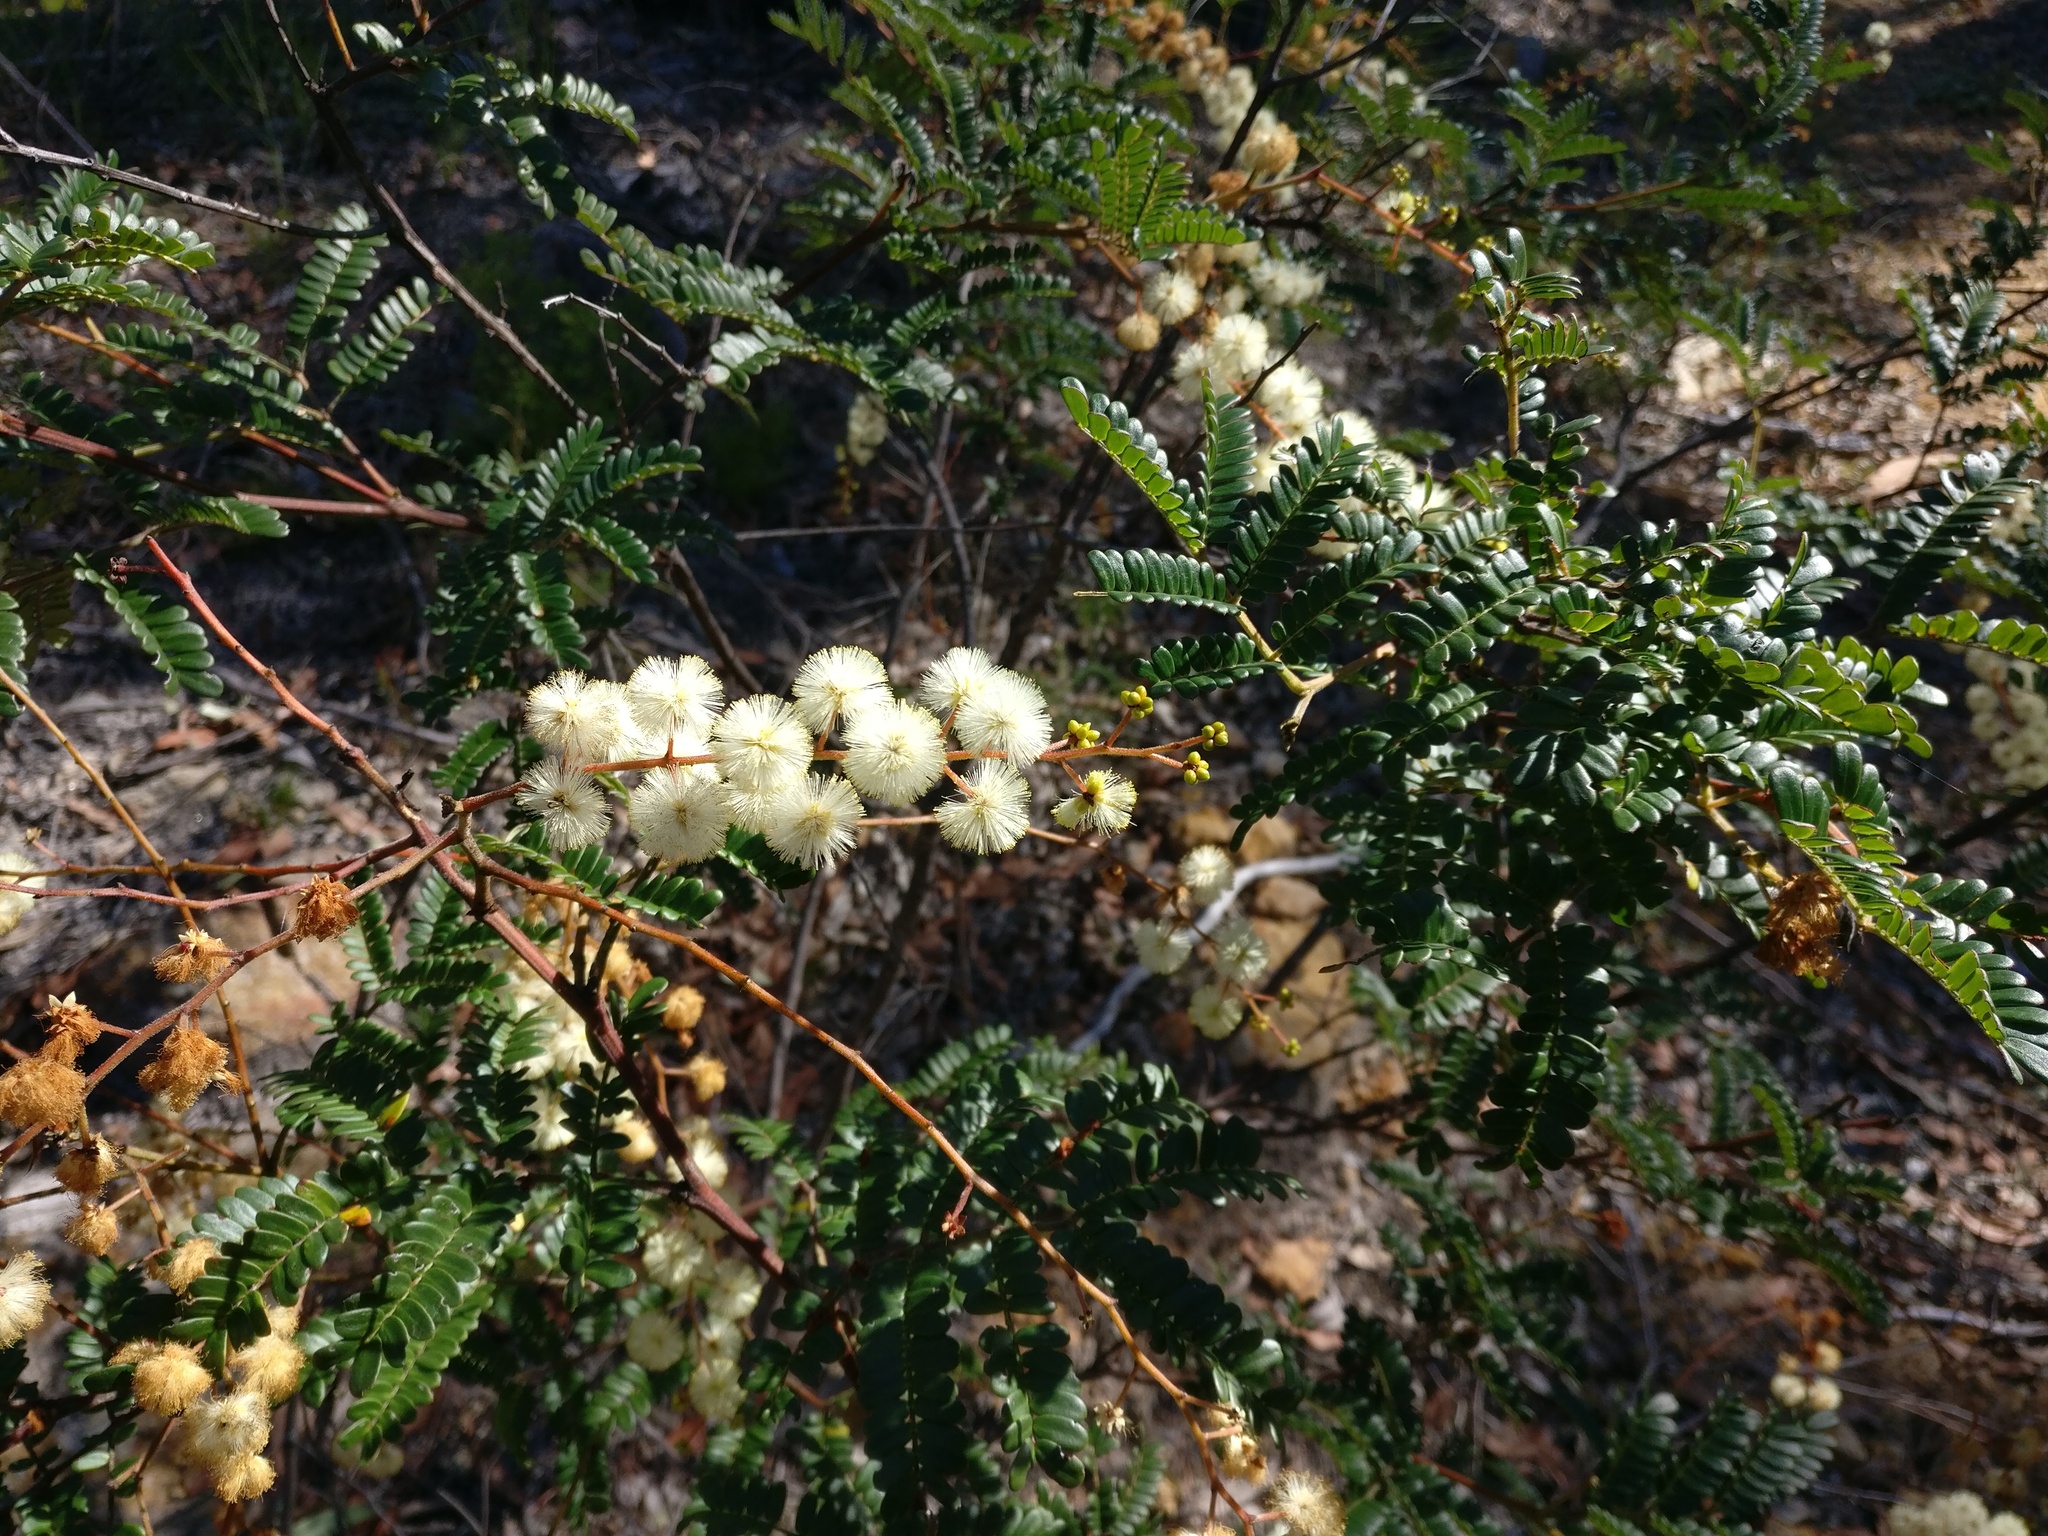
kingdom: Plantae
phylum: Tracheophyta
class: Magnoliopsida
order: Fabales
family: Fabaceae
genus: Acacia
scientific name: Acacia terminalis
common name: Cedar wattle
